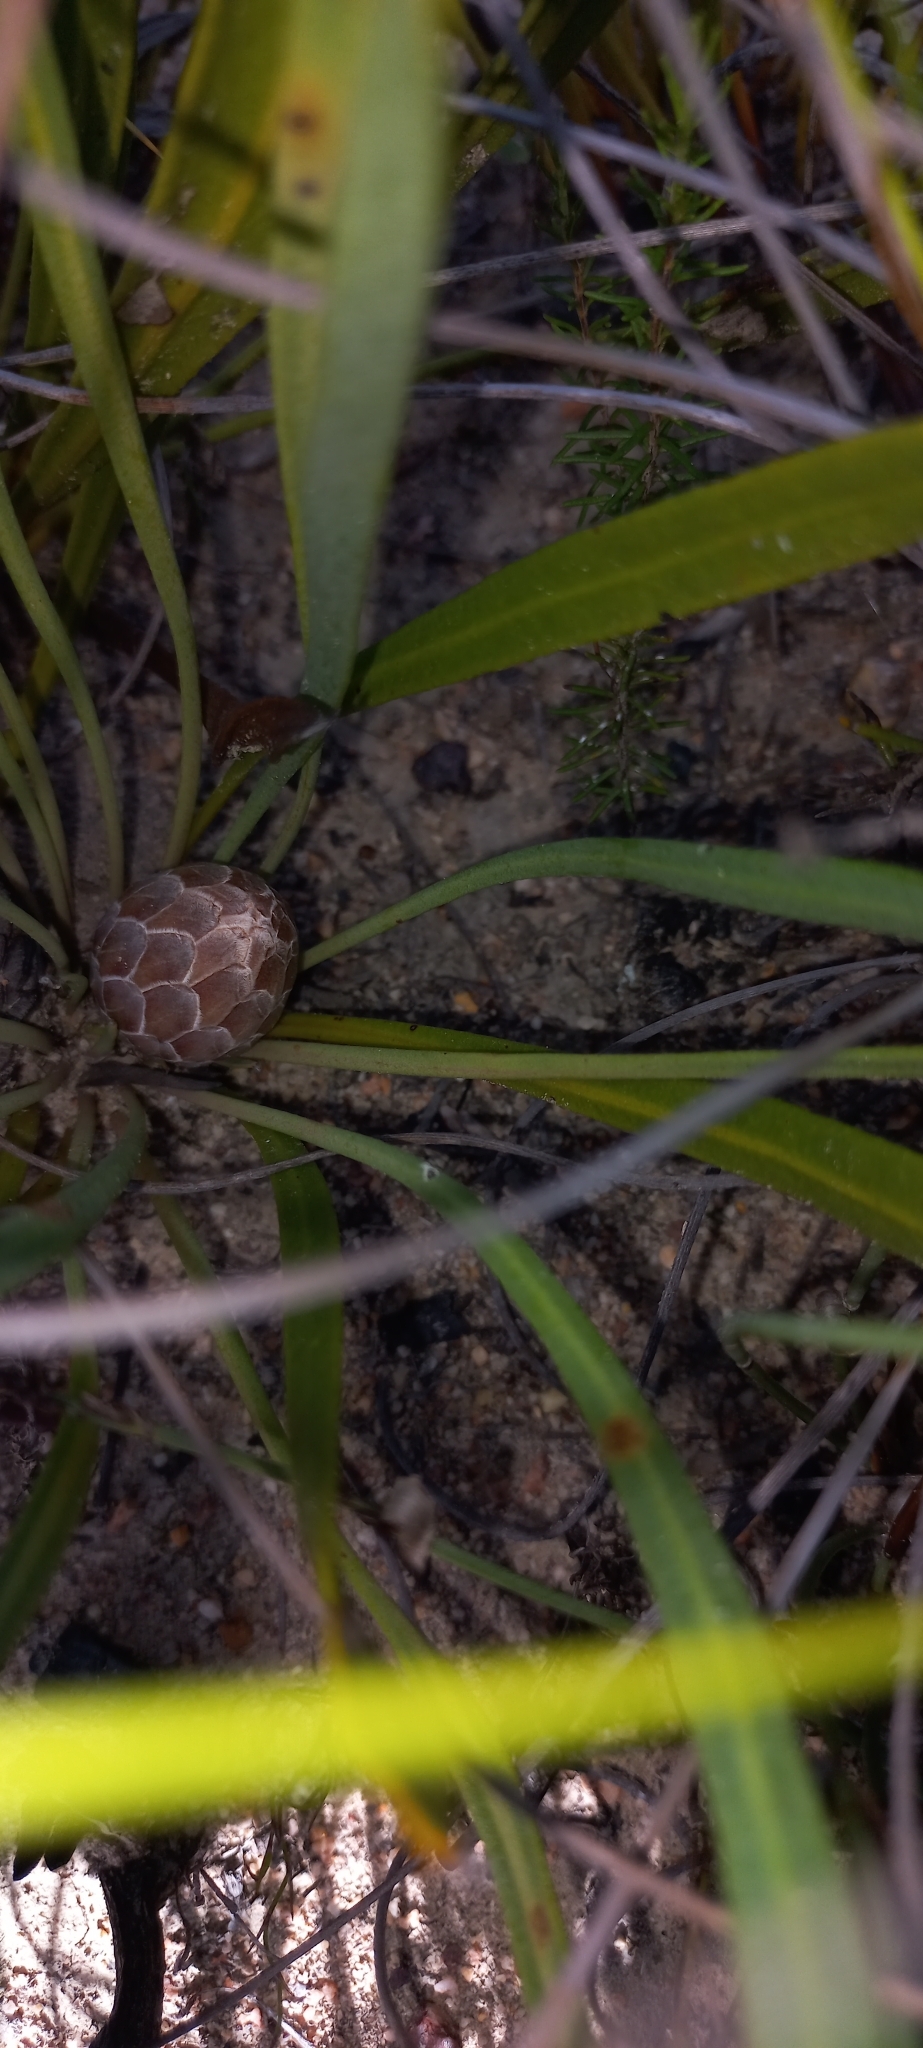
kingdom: Plantae
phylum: Tracheophyta
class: Magnoliopsida
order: Proteales
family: Proteaceae
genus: Protea
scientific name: Protea scabra
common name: Sandpaper-leaf sugarbush
